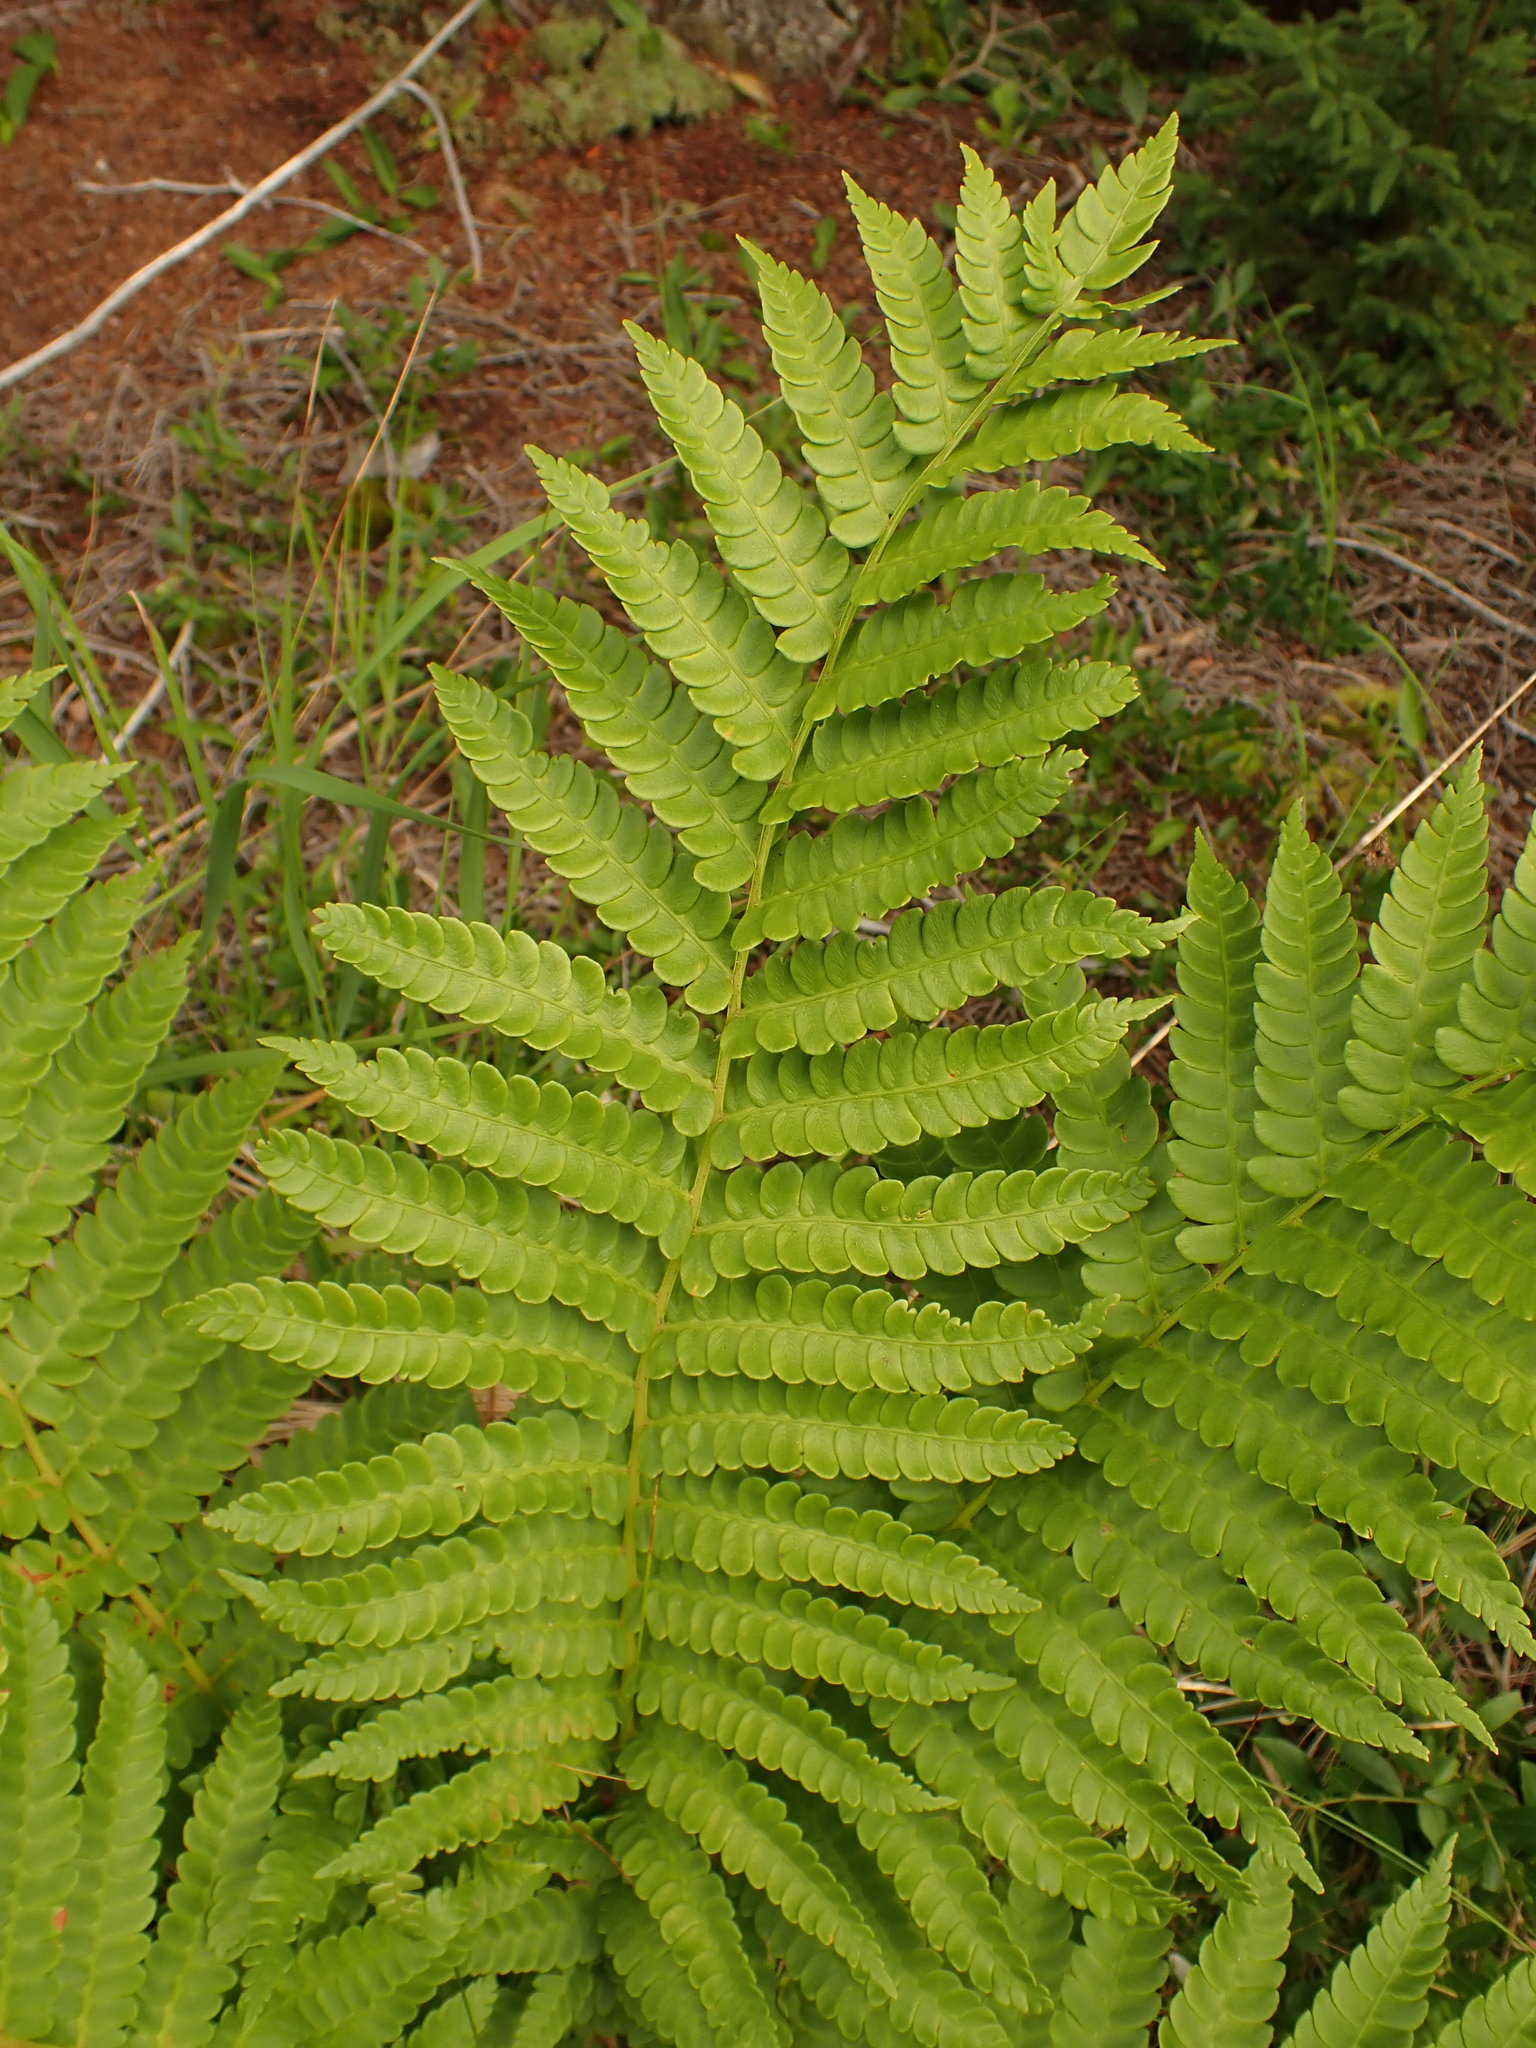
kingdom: Plantae
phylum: Tracheophyta
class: Polypodiopsida
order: Osmundales
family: Osmundaceae
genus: Osmundastrum
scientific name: Osmundastrum cinnamomeum
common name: Cinnamon fern
